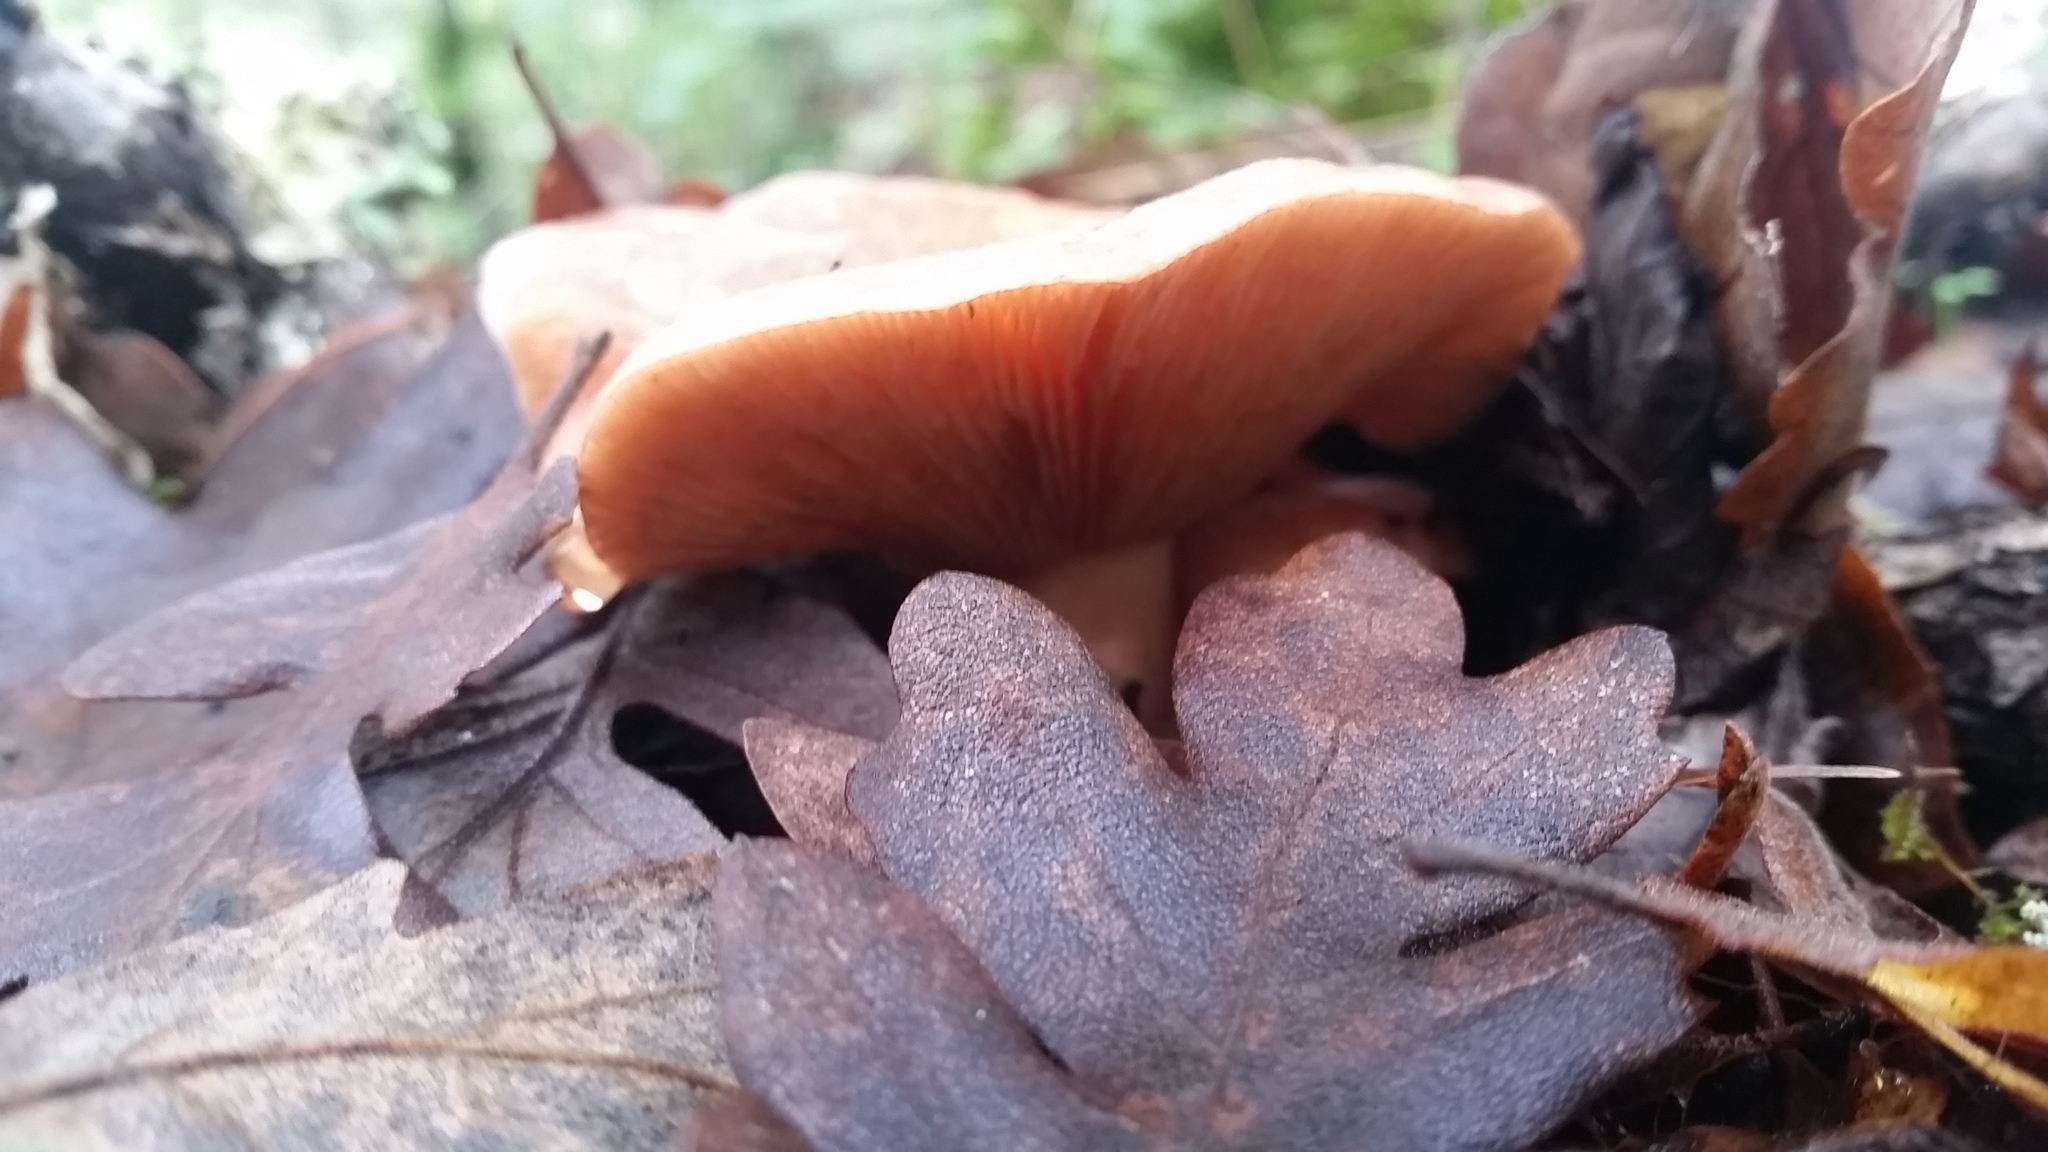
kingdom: Fungi
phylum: Basidiomycota
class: Agaricomycetes
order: Russulales
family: Russulaceae
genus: Lactarius
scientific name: Lactarius xanthogalactus
